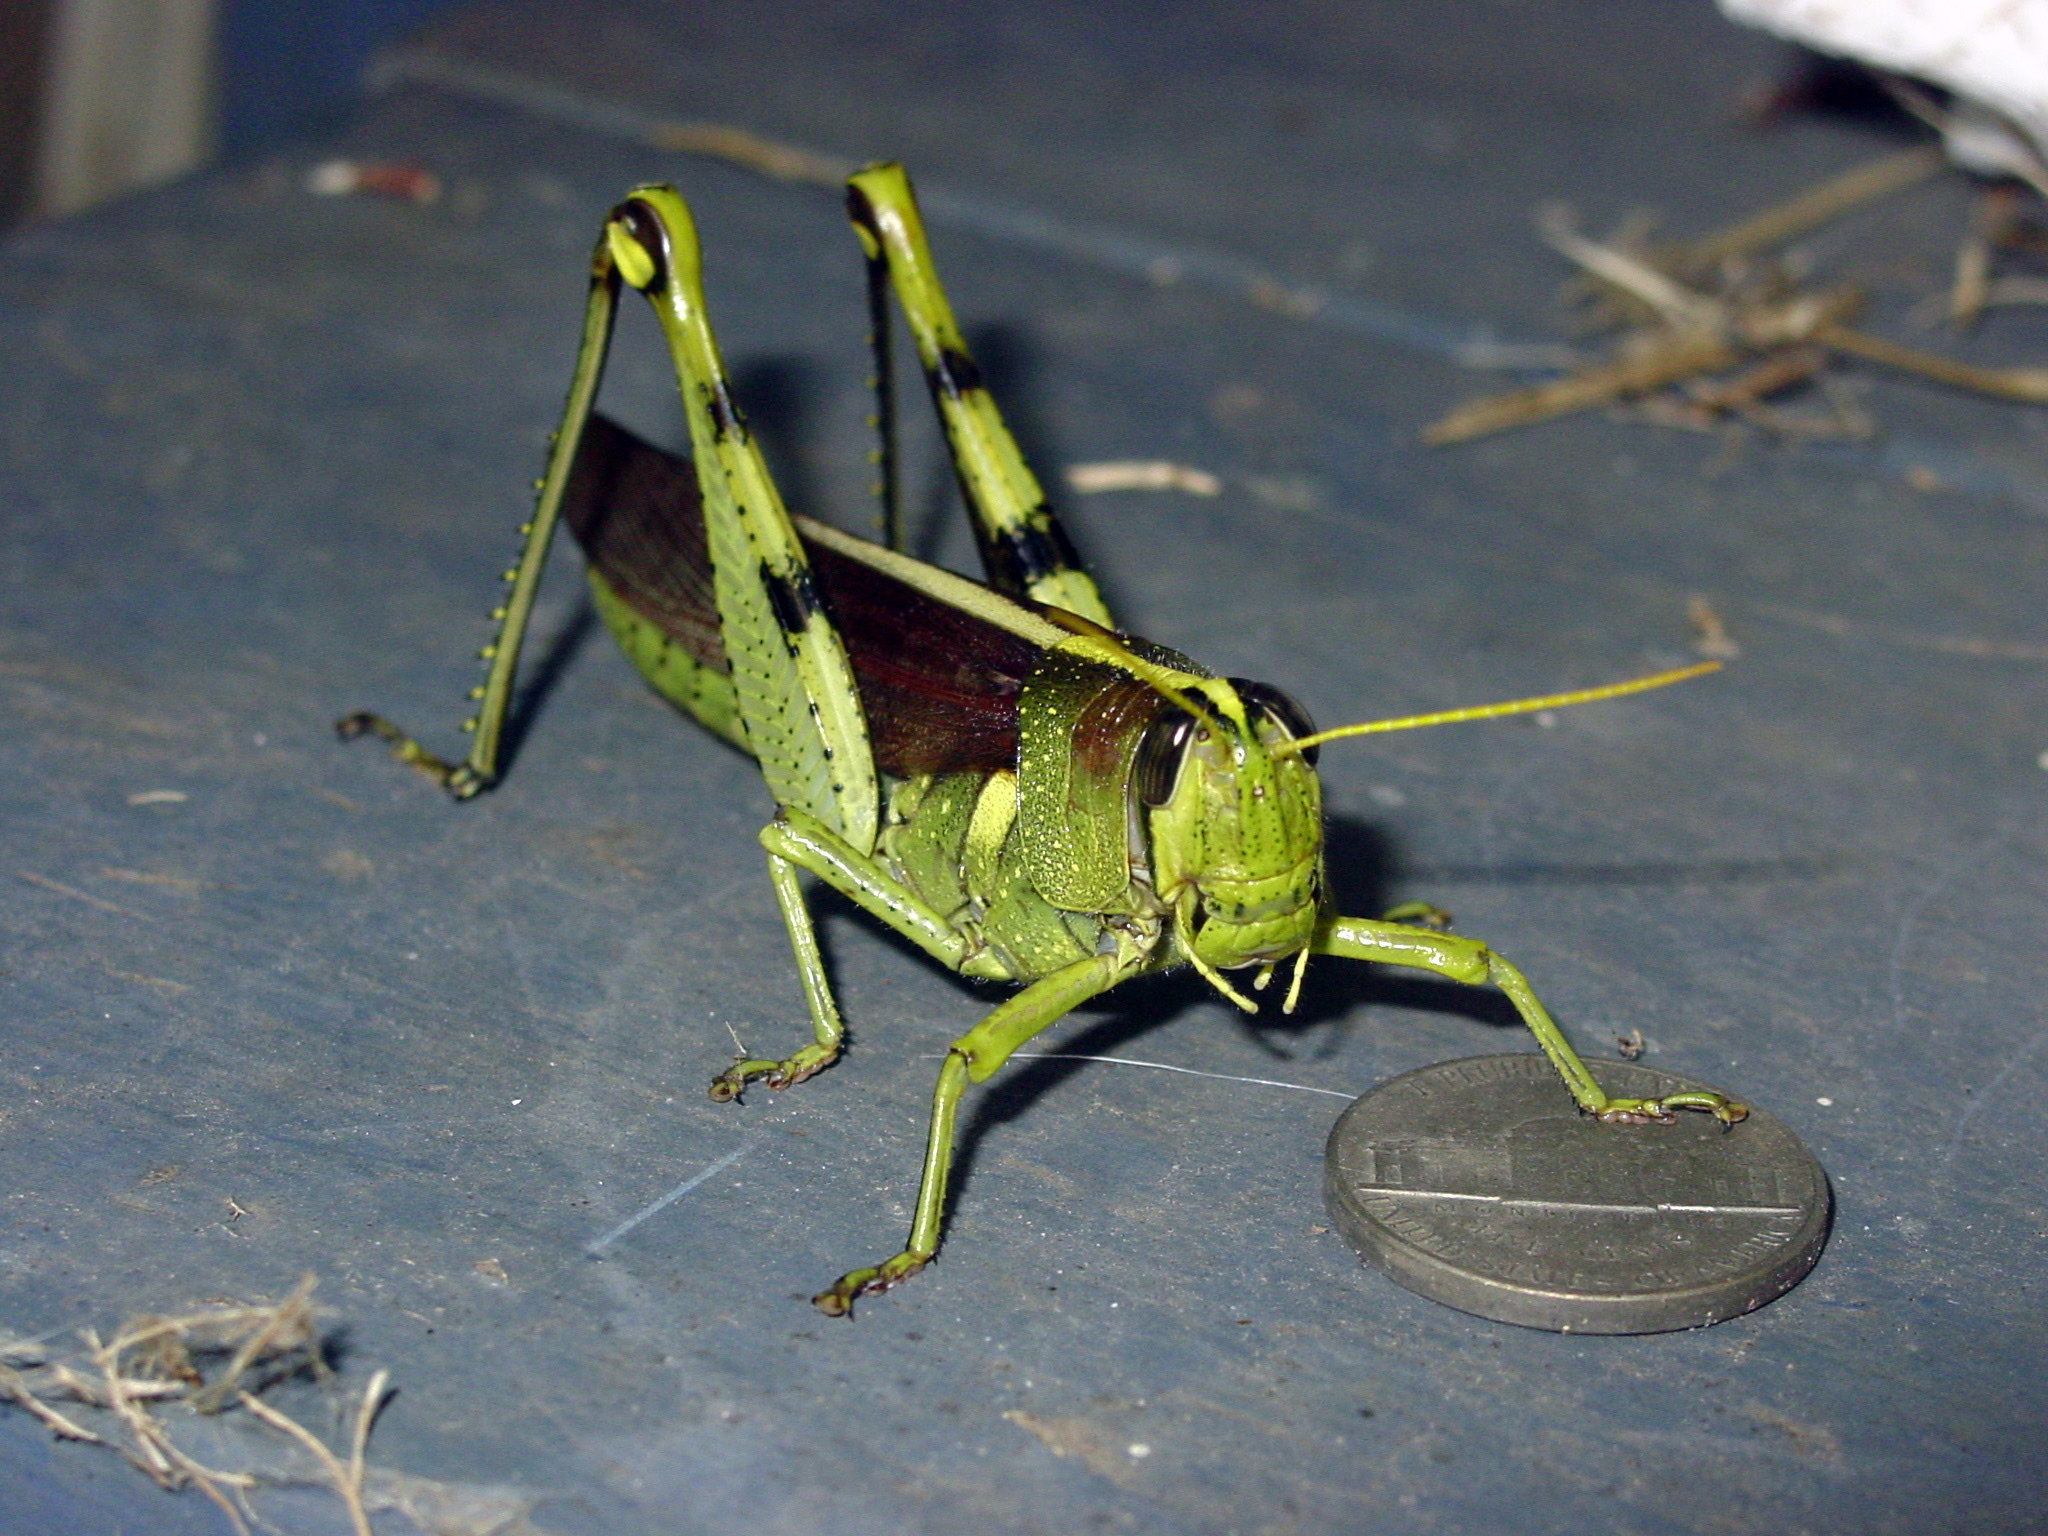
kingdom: Animalia
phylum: Arthropoda
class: Insecta
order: Orthoptera
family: Acrididae
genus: Schistocerca
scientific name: Schistocerca obscura
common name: Obscure bird grasshopper
